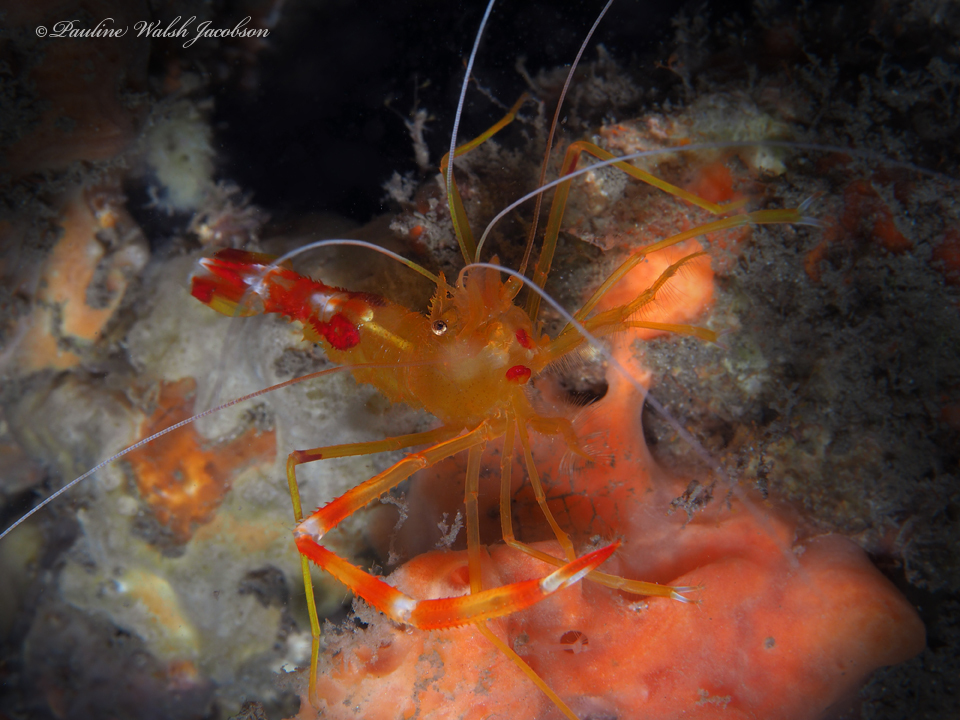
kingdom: Animalia
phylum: Arthropoda
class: Malacostraca
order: Decapoda
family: Stenopodidae
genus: Stenopus
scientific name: Stenopus scutellatus
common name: Golden coral shrimp
